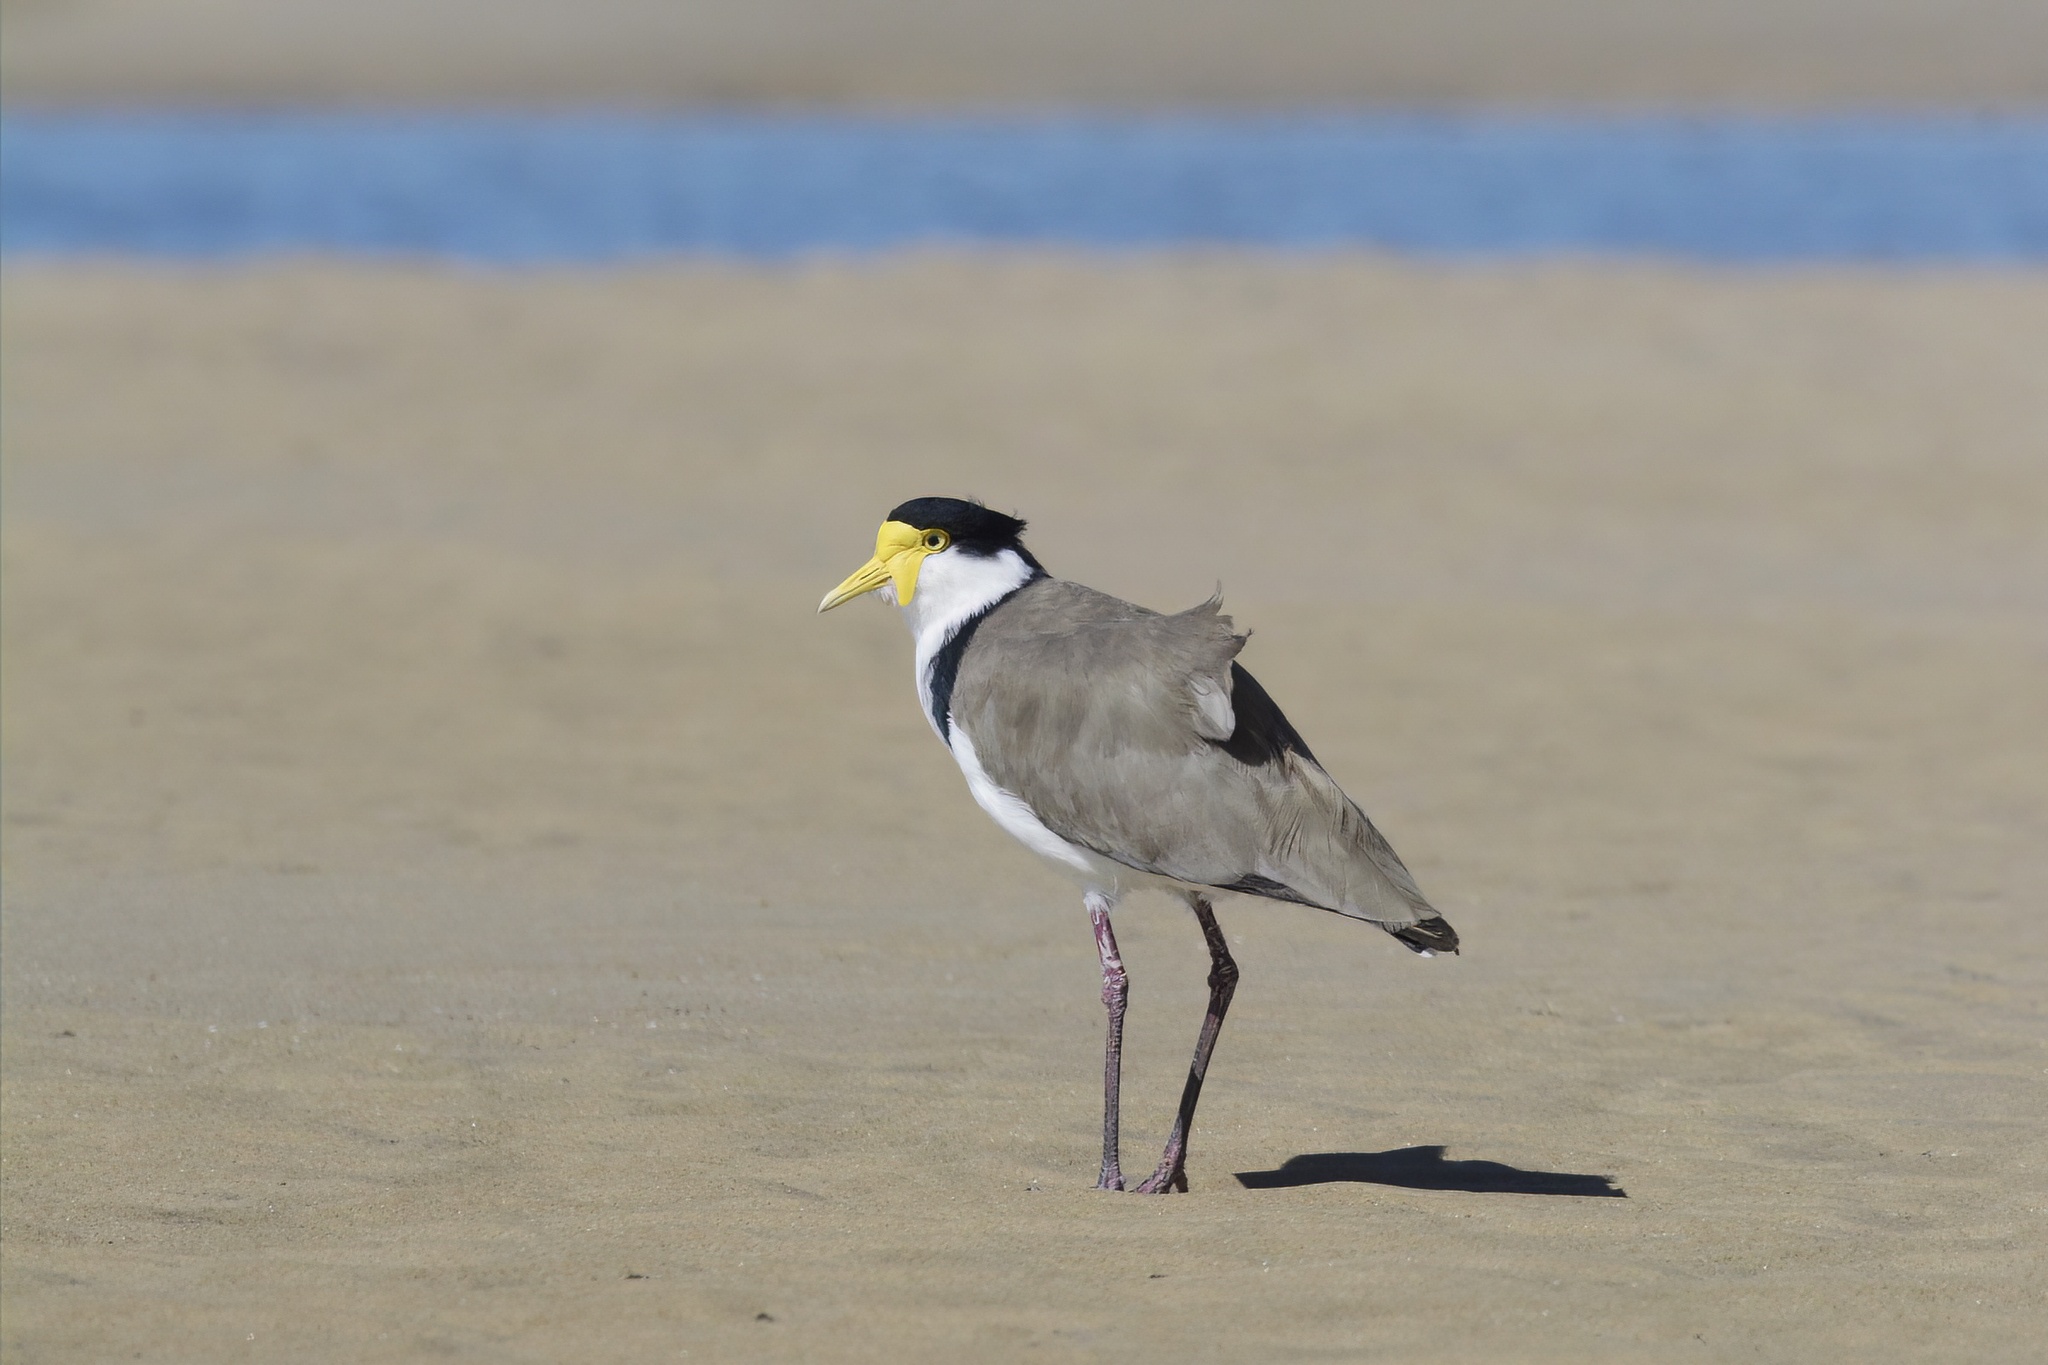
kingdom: Animalia
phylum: Chordata
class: Aves
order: Charadriiformes
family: Charadriidae
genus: Vanellus
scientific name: Vanellus miles
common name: Masked lapwing
